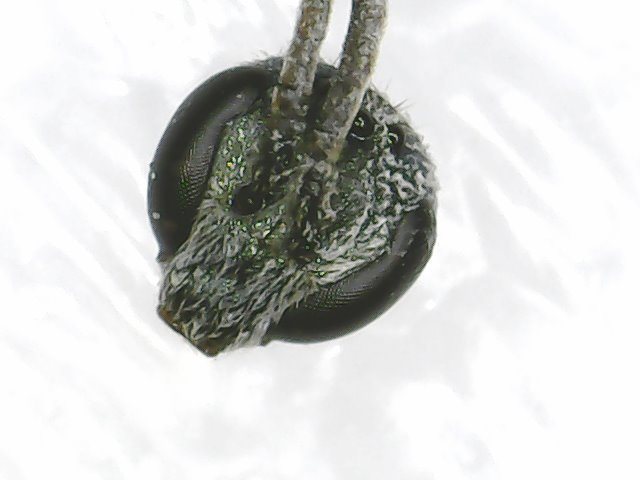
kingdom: Animalia
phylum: Arthropoda
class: Insecta
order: Hymenoptera
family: Halictidae
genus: Dialictus
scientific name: Dialictus
